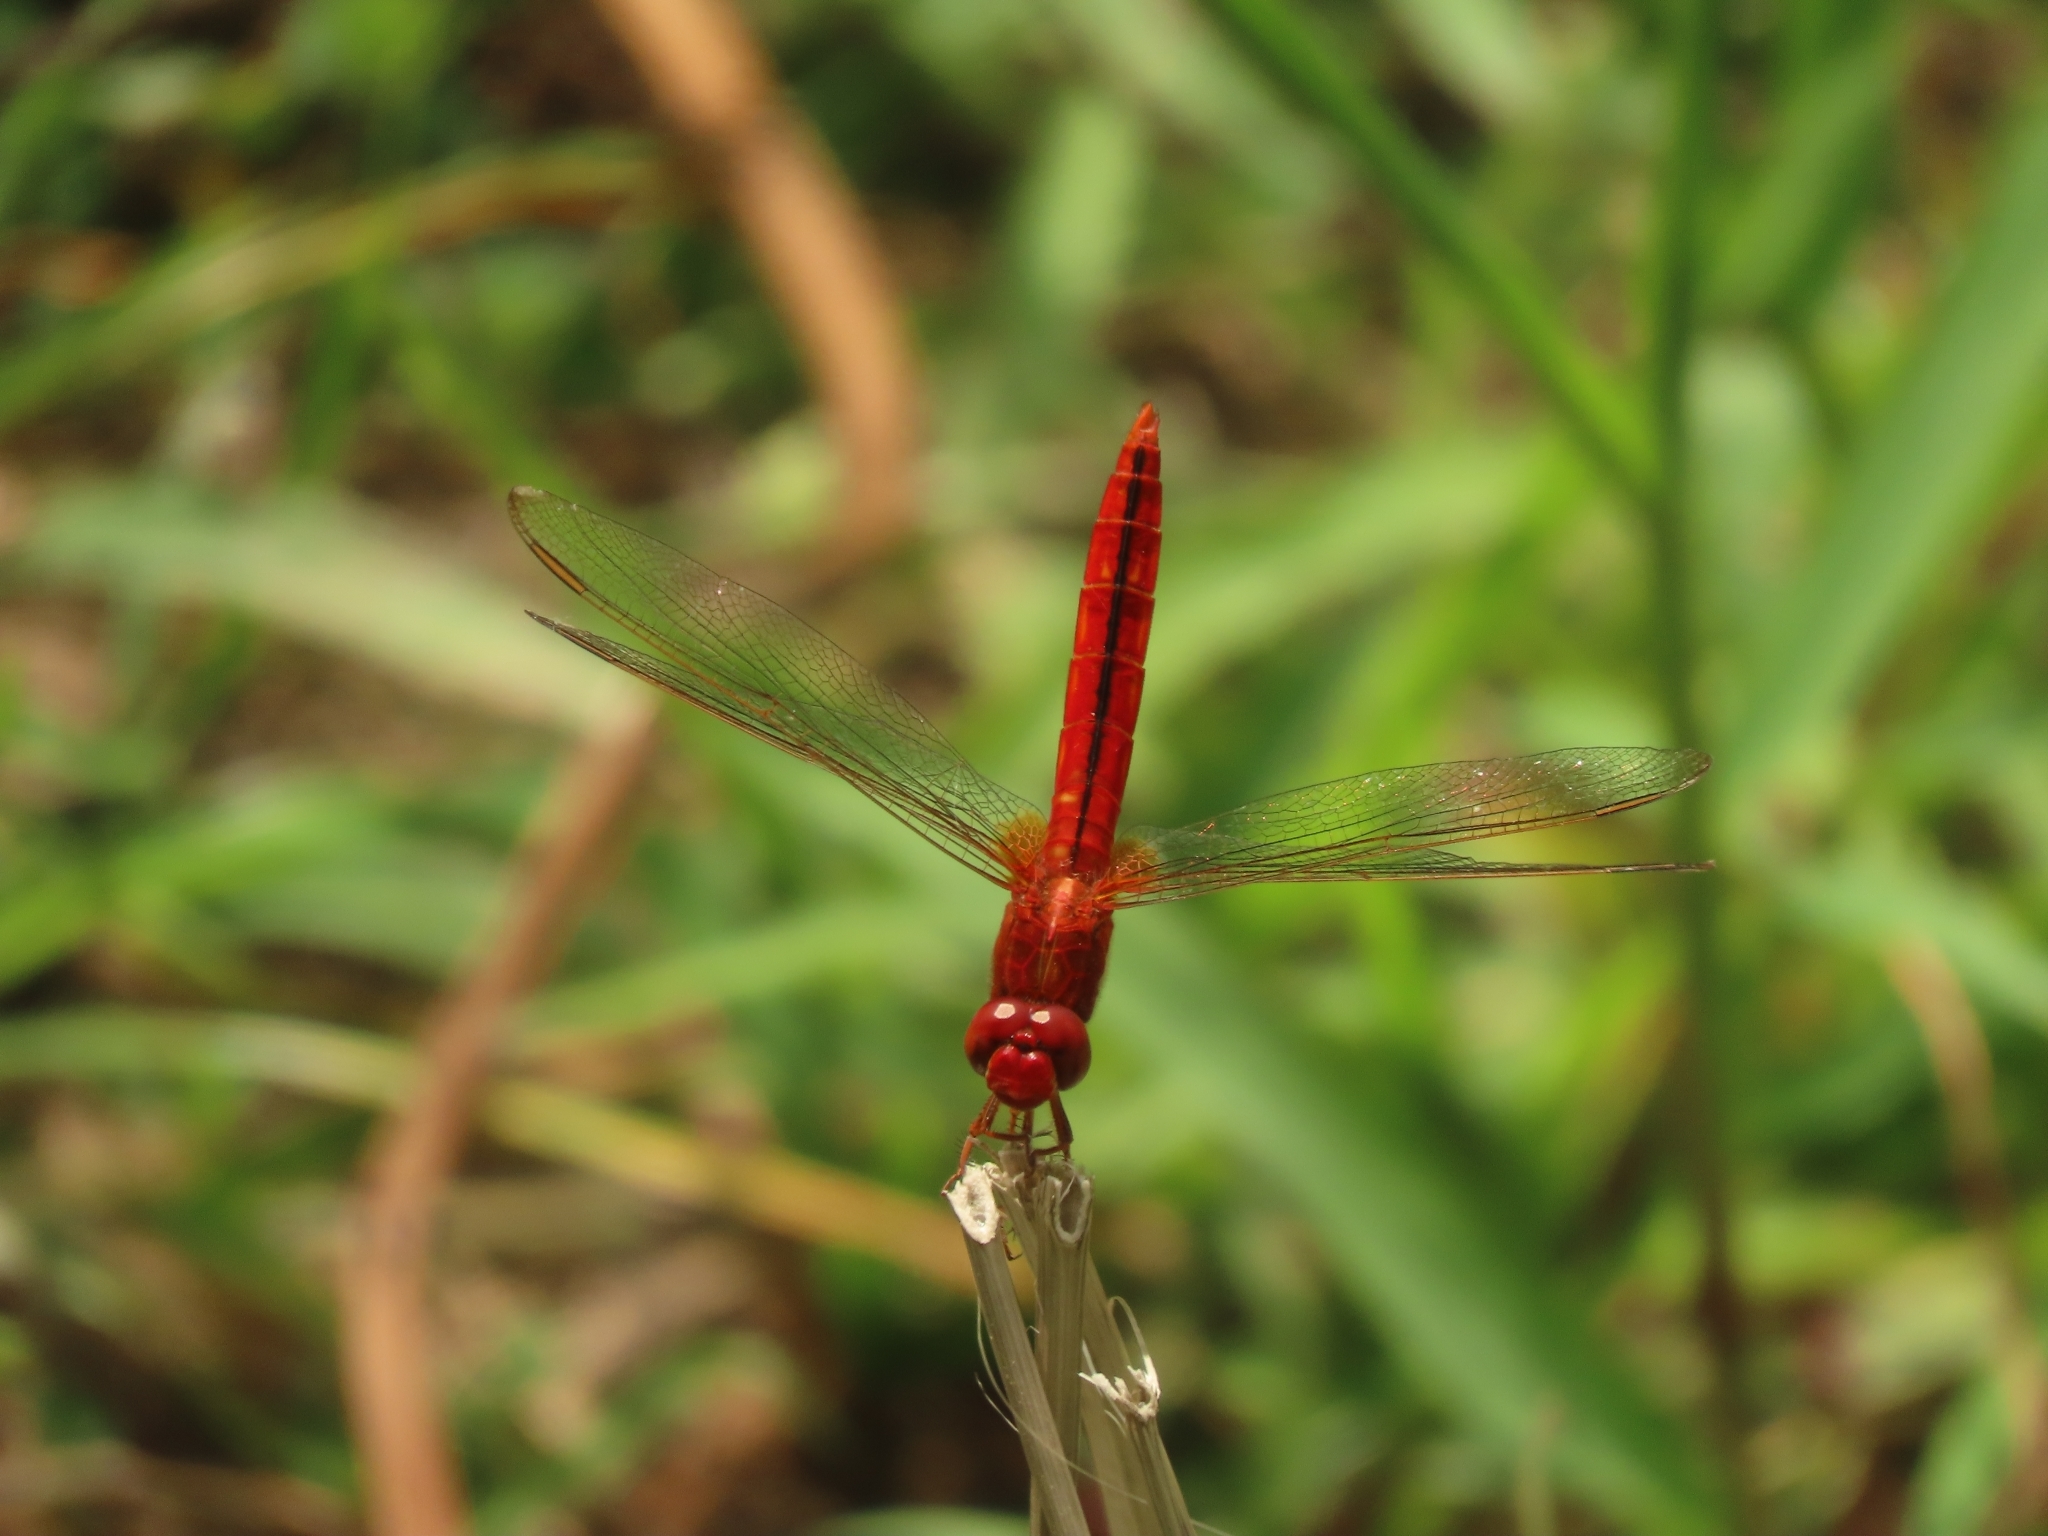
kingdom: Animalia
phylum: Arthropoda
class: Insecta
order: Odonata
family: Libellulidae
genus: Crocothemis
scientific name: Crocothemis servilia
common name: Scarlet skimmer
